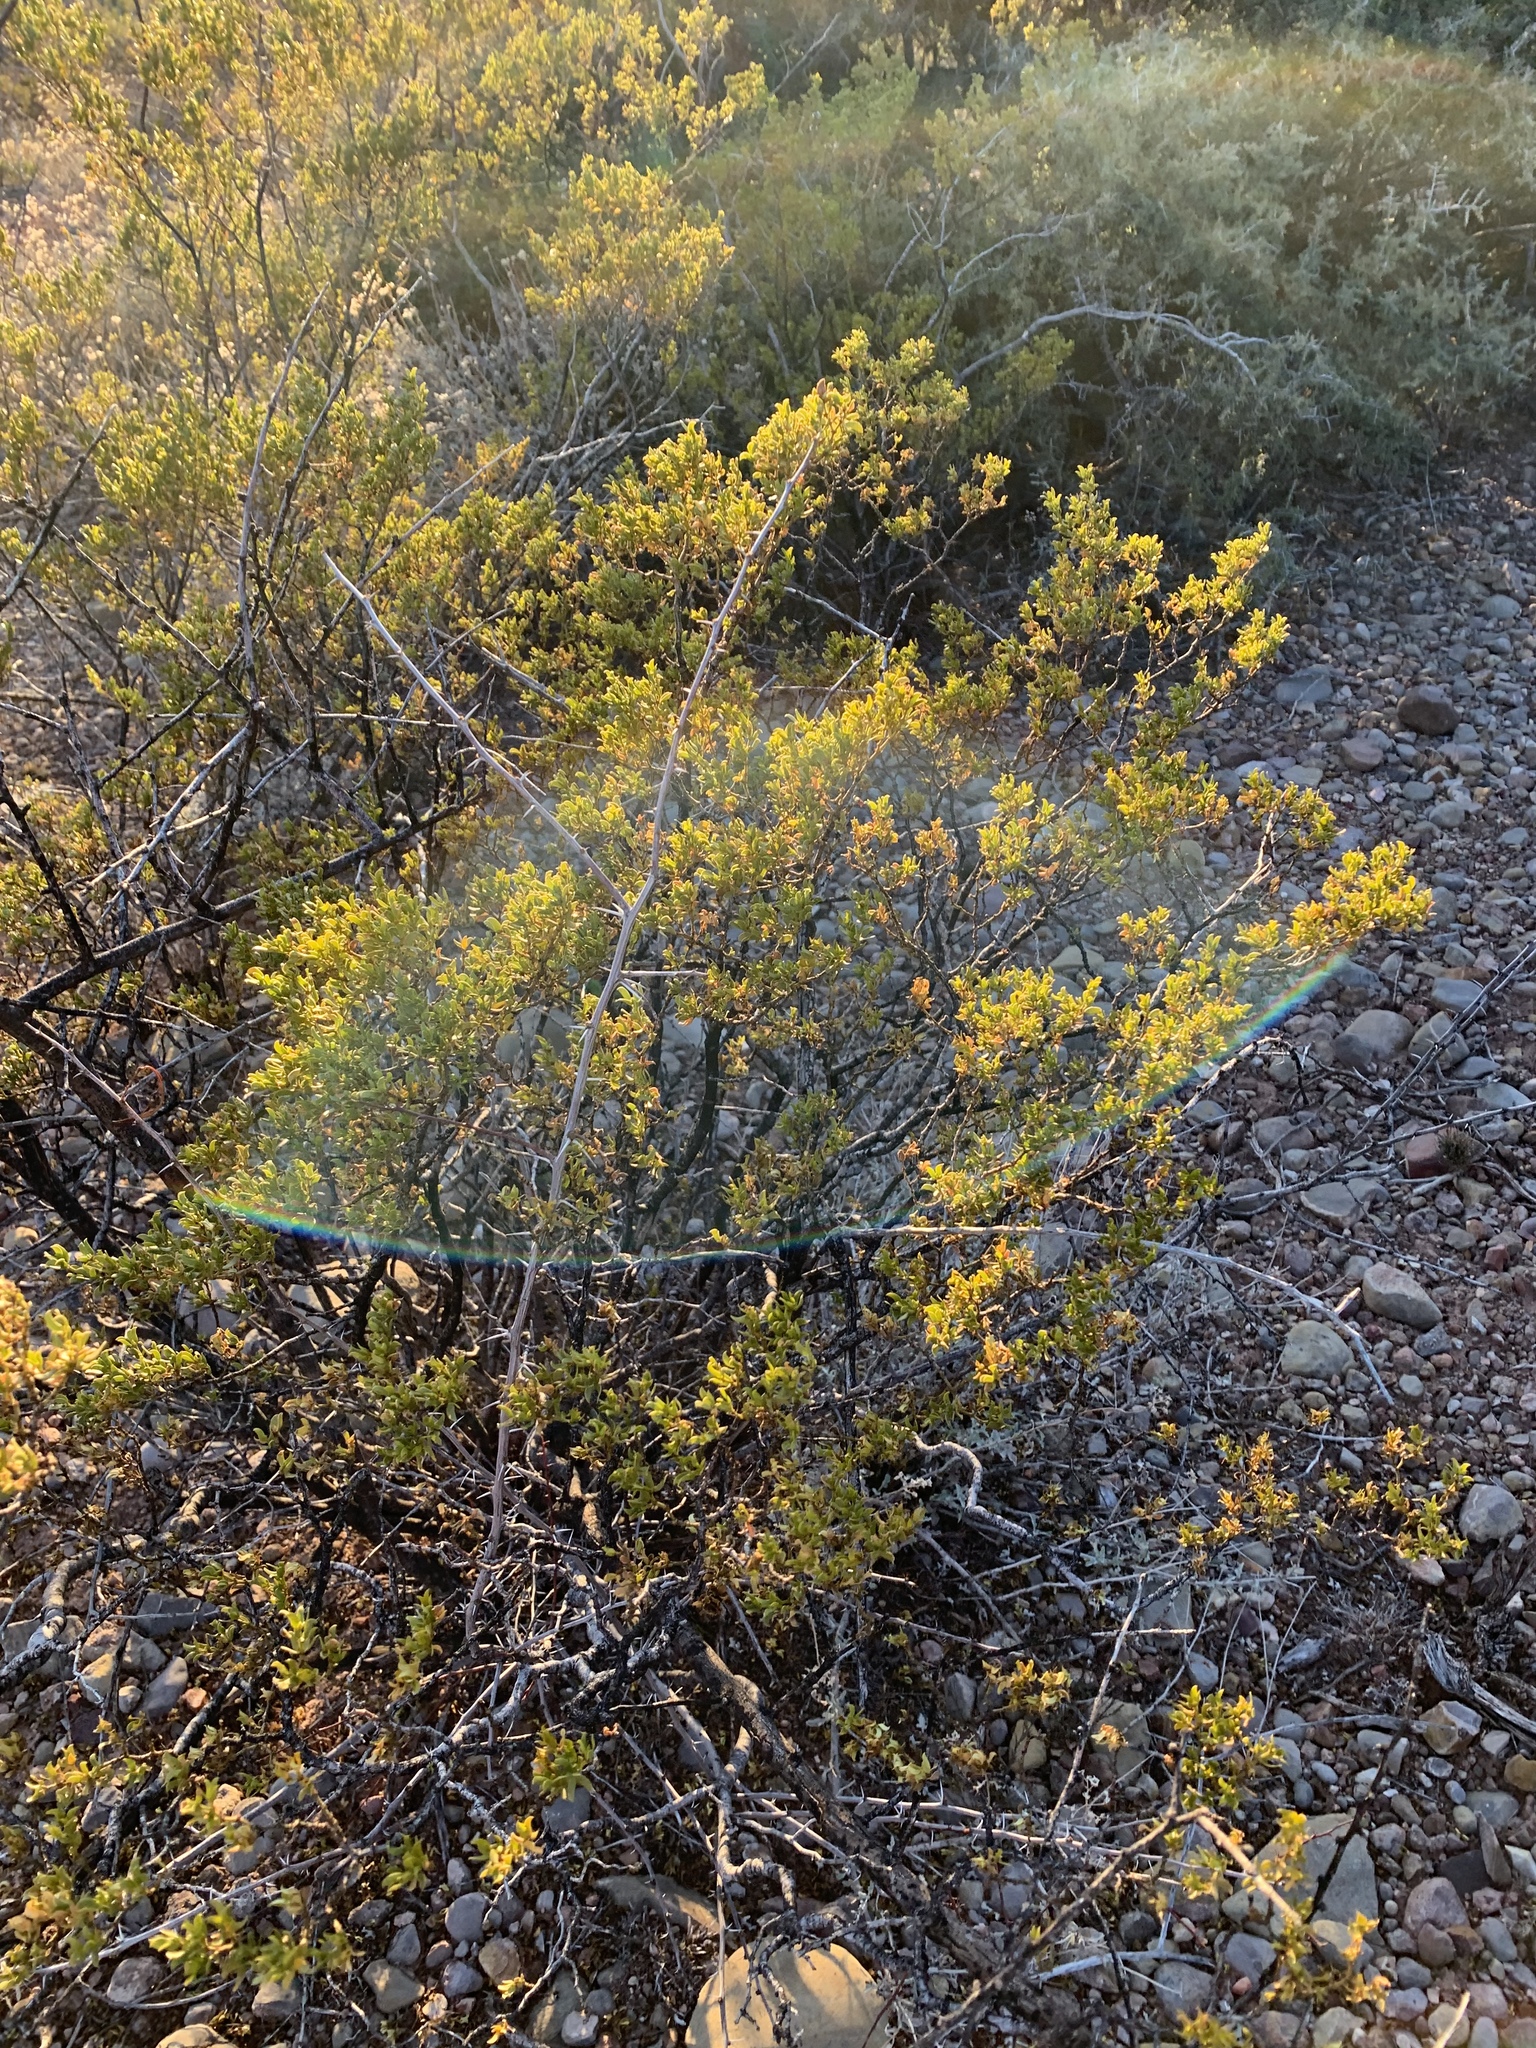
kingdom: Plantae
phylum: Tracheophyta
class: Magnoliopsida
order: Zygophyllales
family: Zygophyllaceae
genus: Larrea
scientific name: Larrea tridentata
